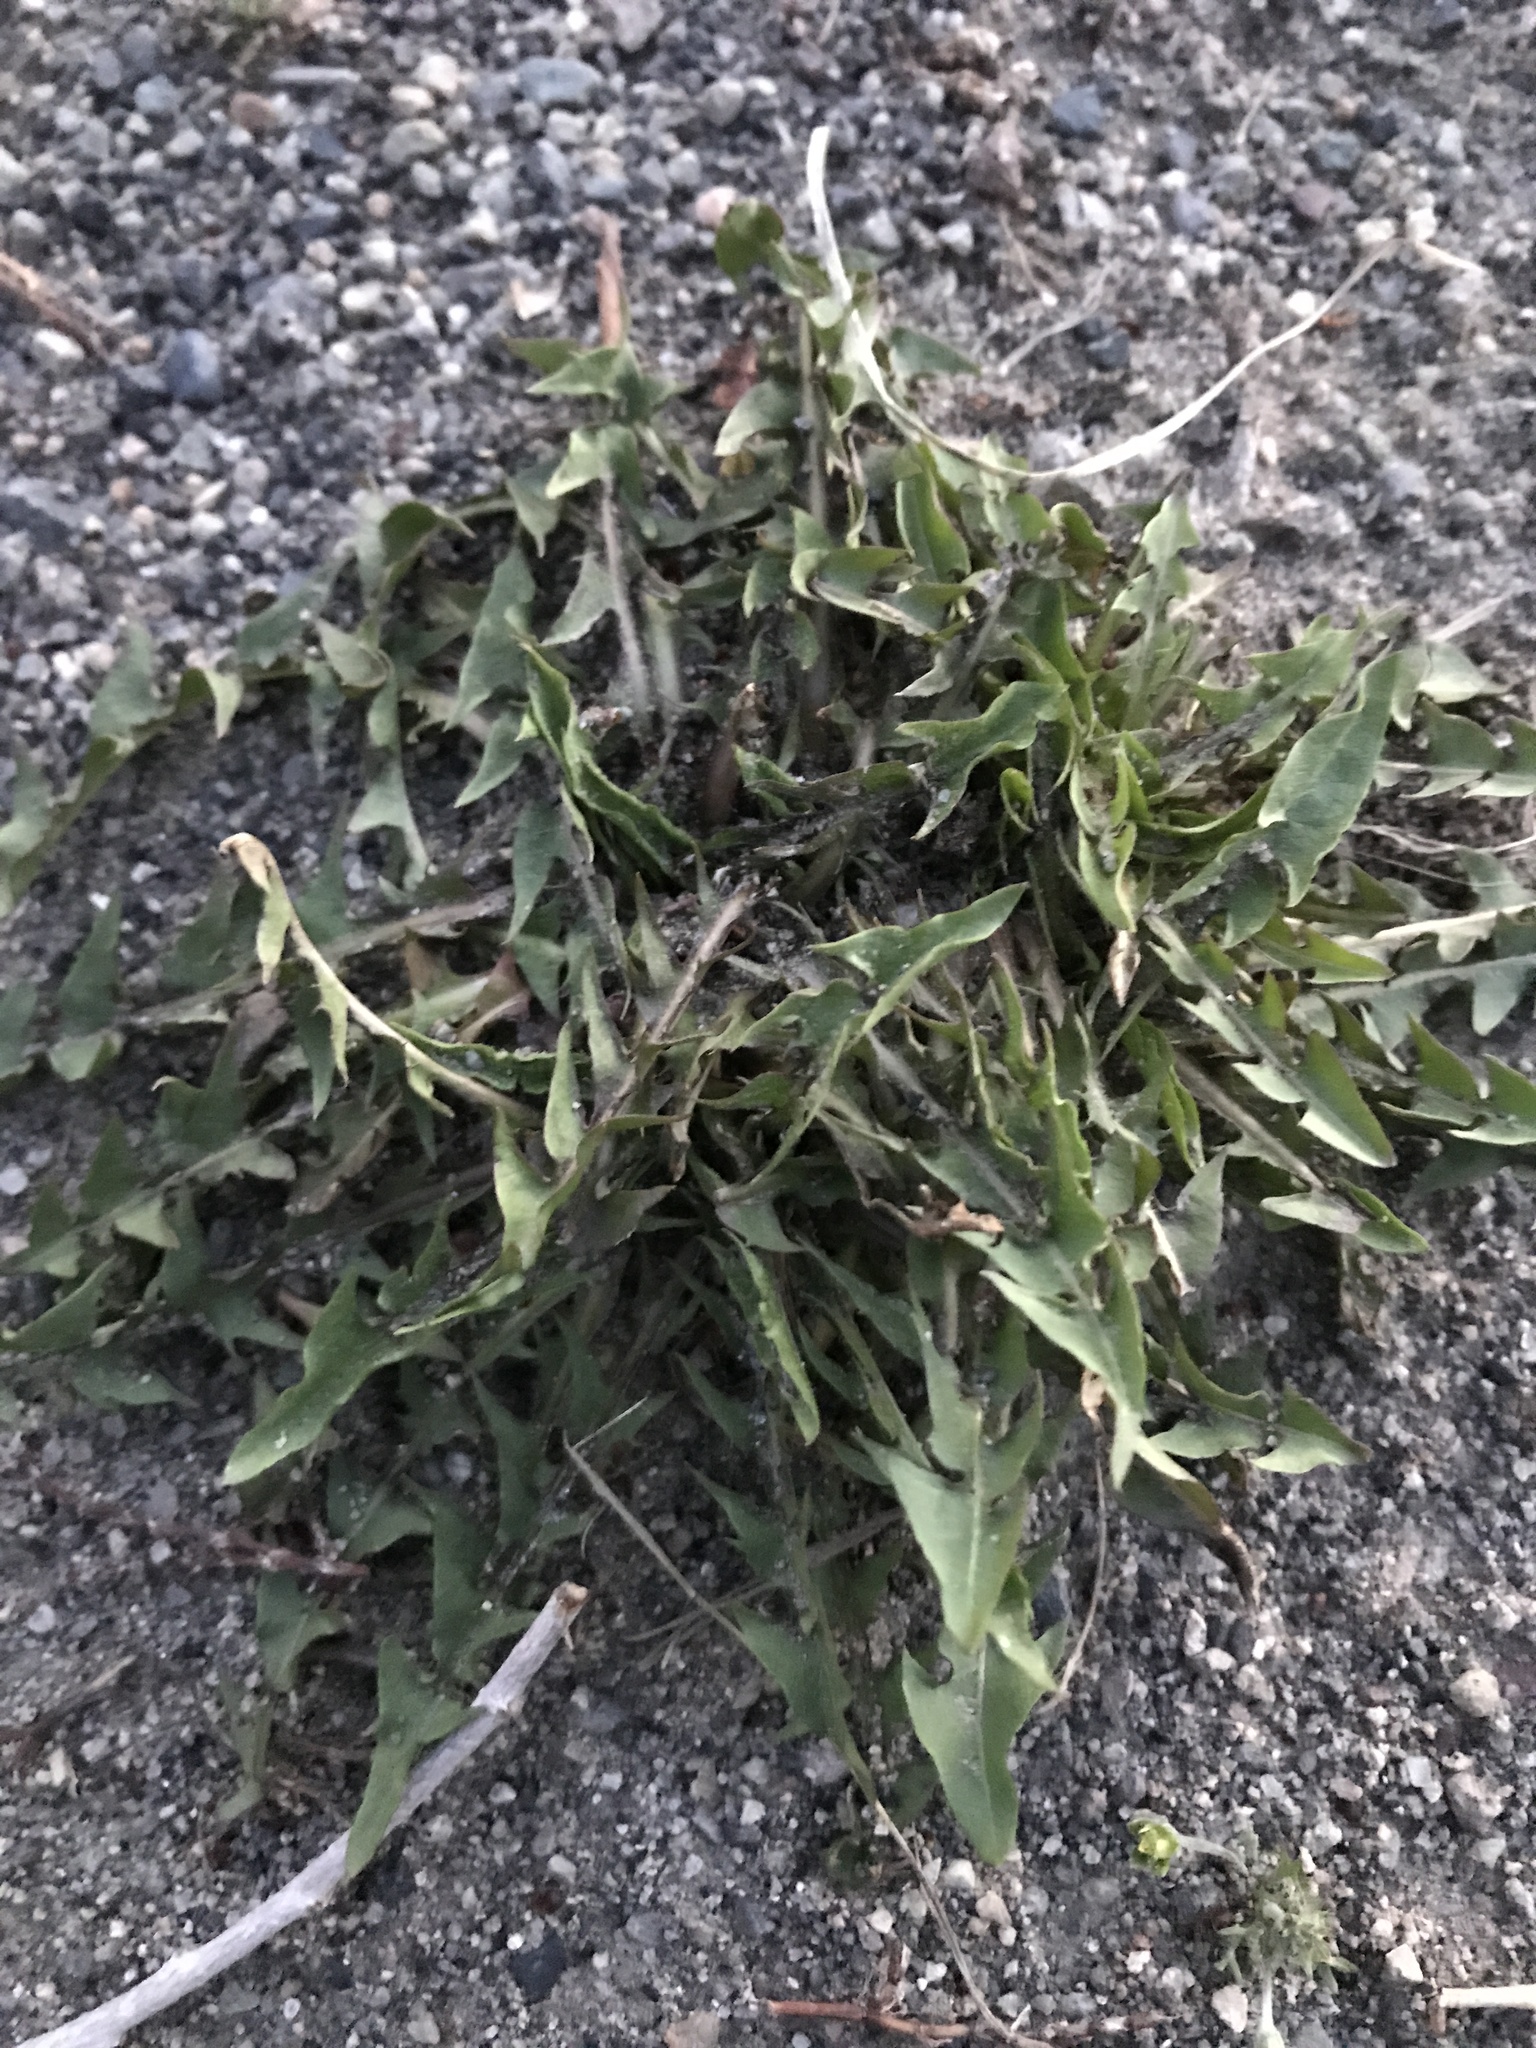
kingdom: Plantae
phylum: Tracheophyta
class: Magnoliopsida
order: Asterales
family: Asteraceae
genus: Taraxacum
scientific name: Taraxacum officinale
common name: Common dandelion
